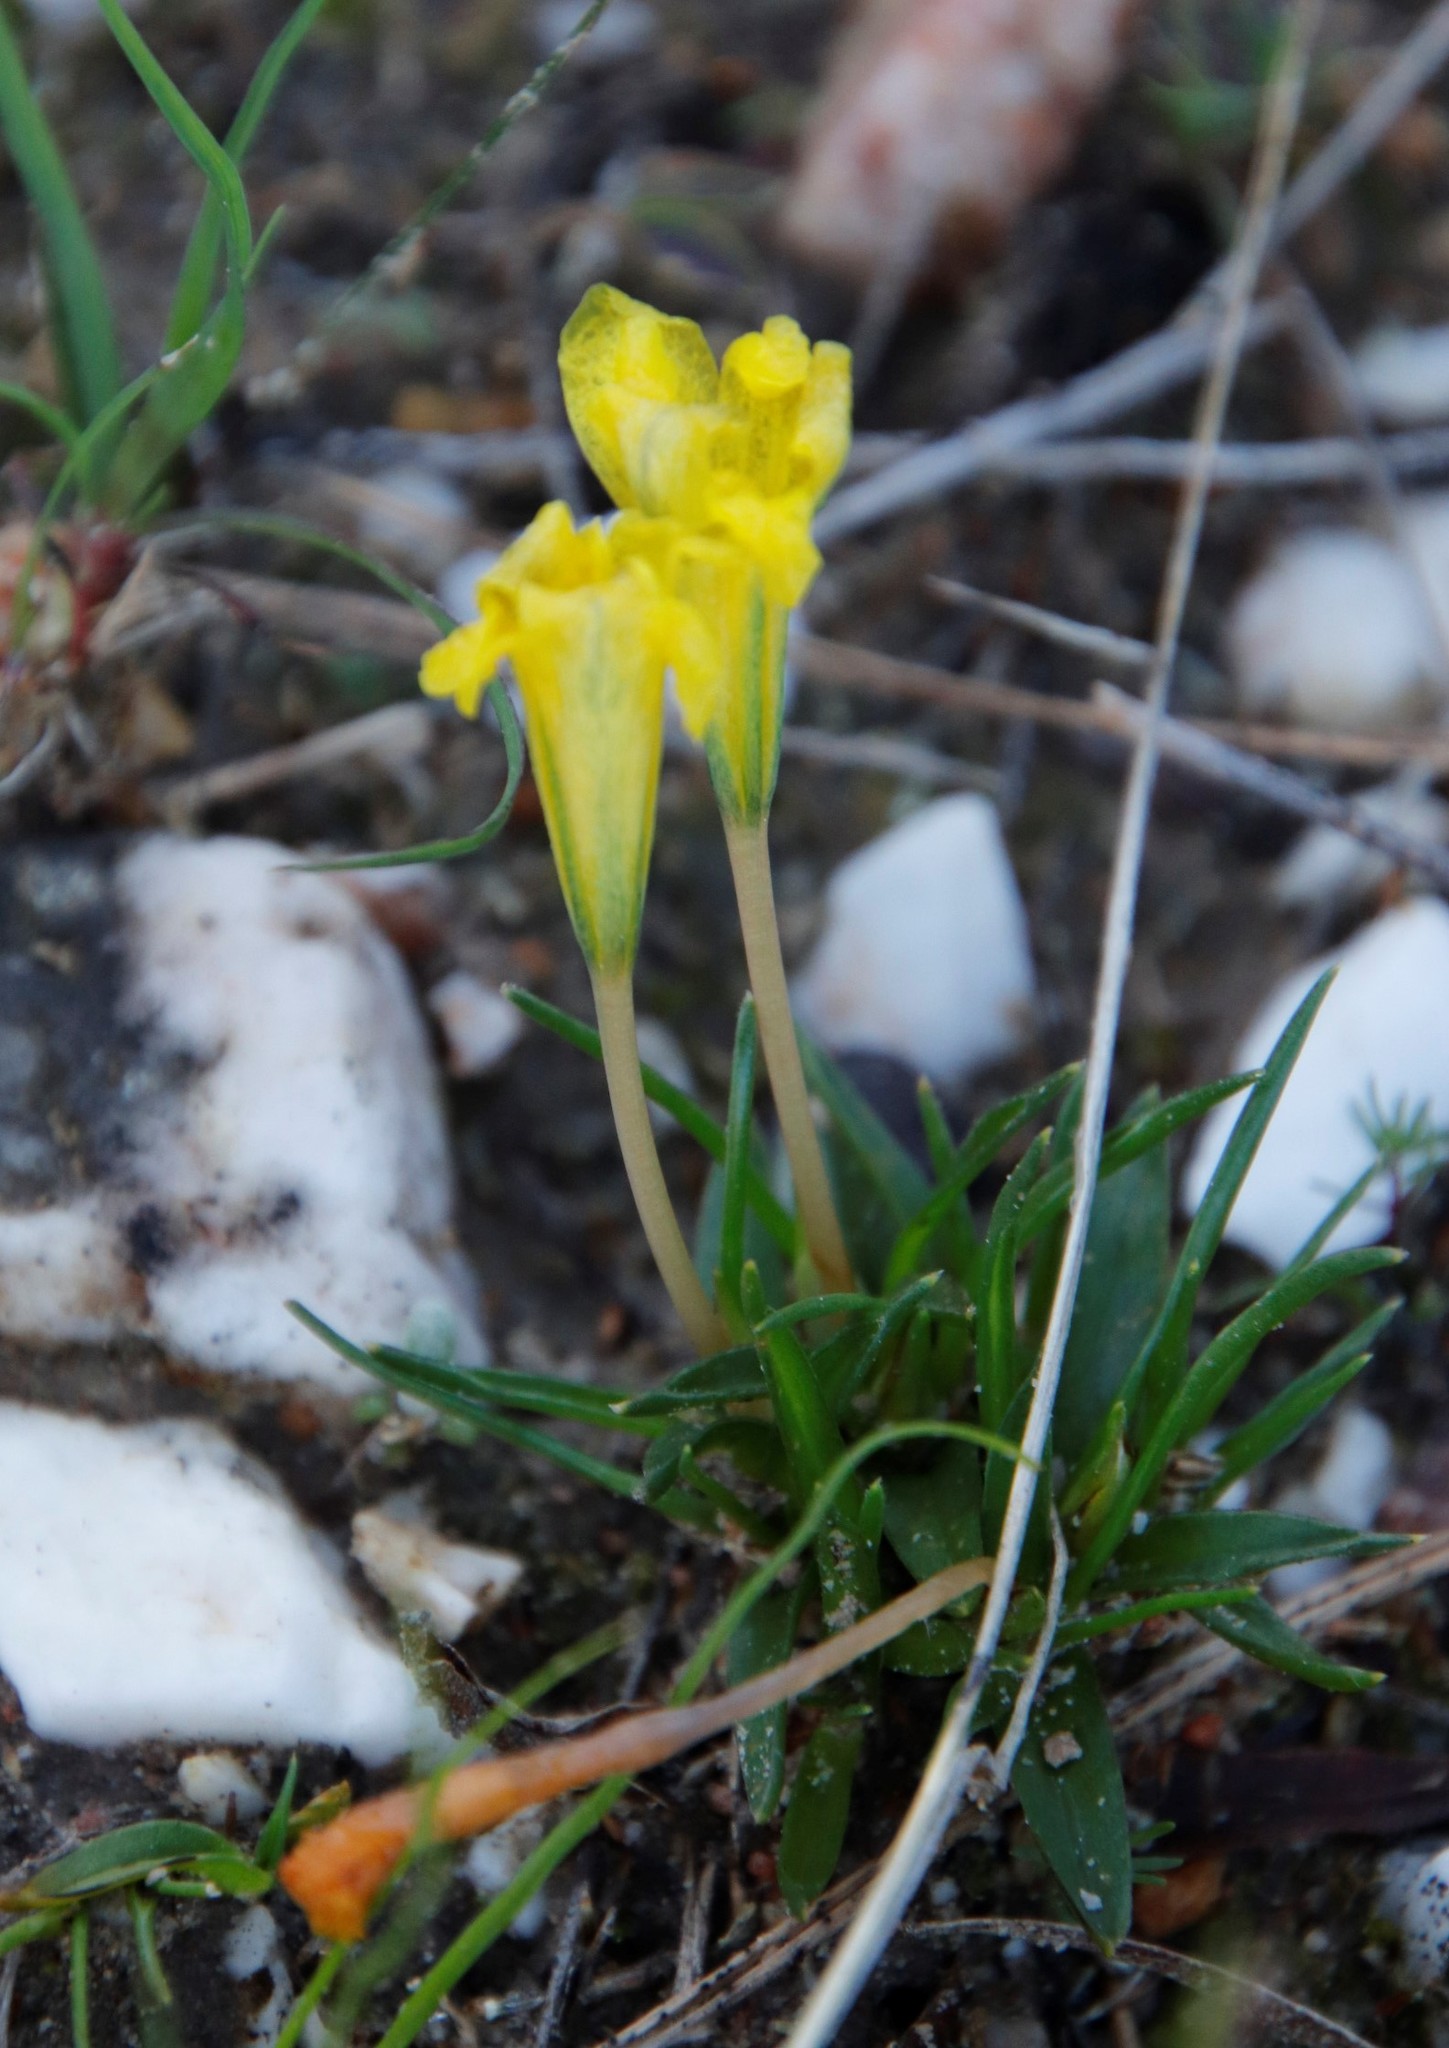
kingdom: Plantae
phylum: Tracheophyta
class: Liliopsida
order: Asparagales
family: Iridaceae
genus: Moraea
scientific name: Moraea fugacissima
